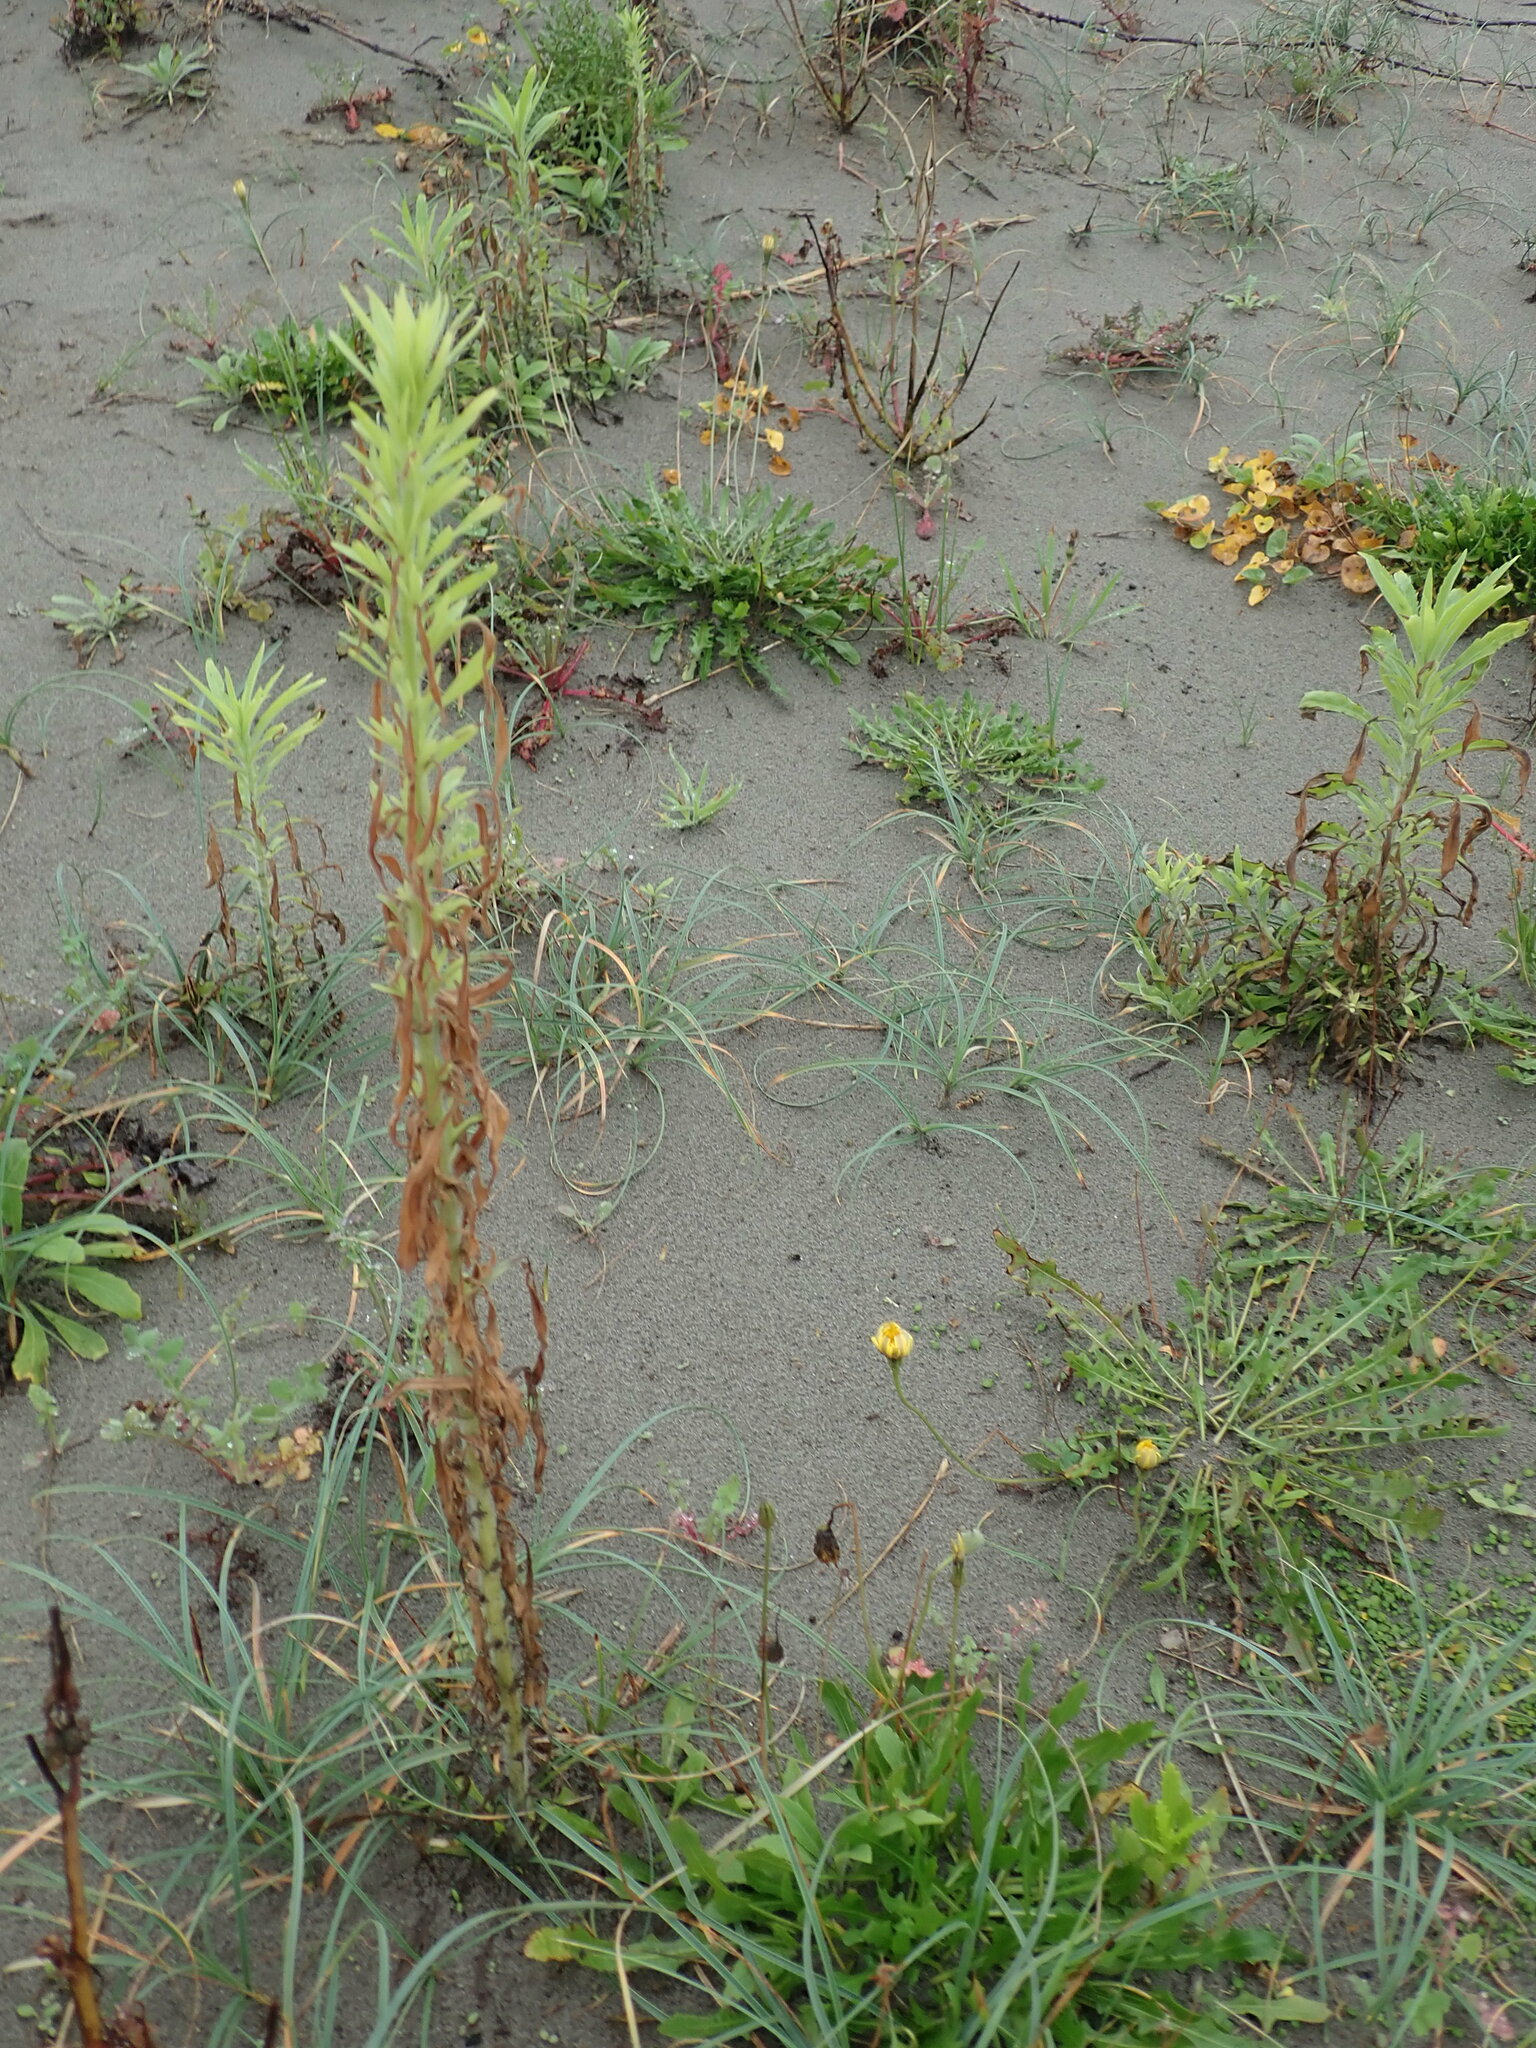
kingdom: Plantae
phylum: Tracheophyta
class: Magnoliopsida
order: Asterales
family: Asteraceae
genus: Erigeron
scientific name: Erigeron sumatrensis
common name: Daisy
